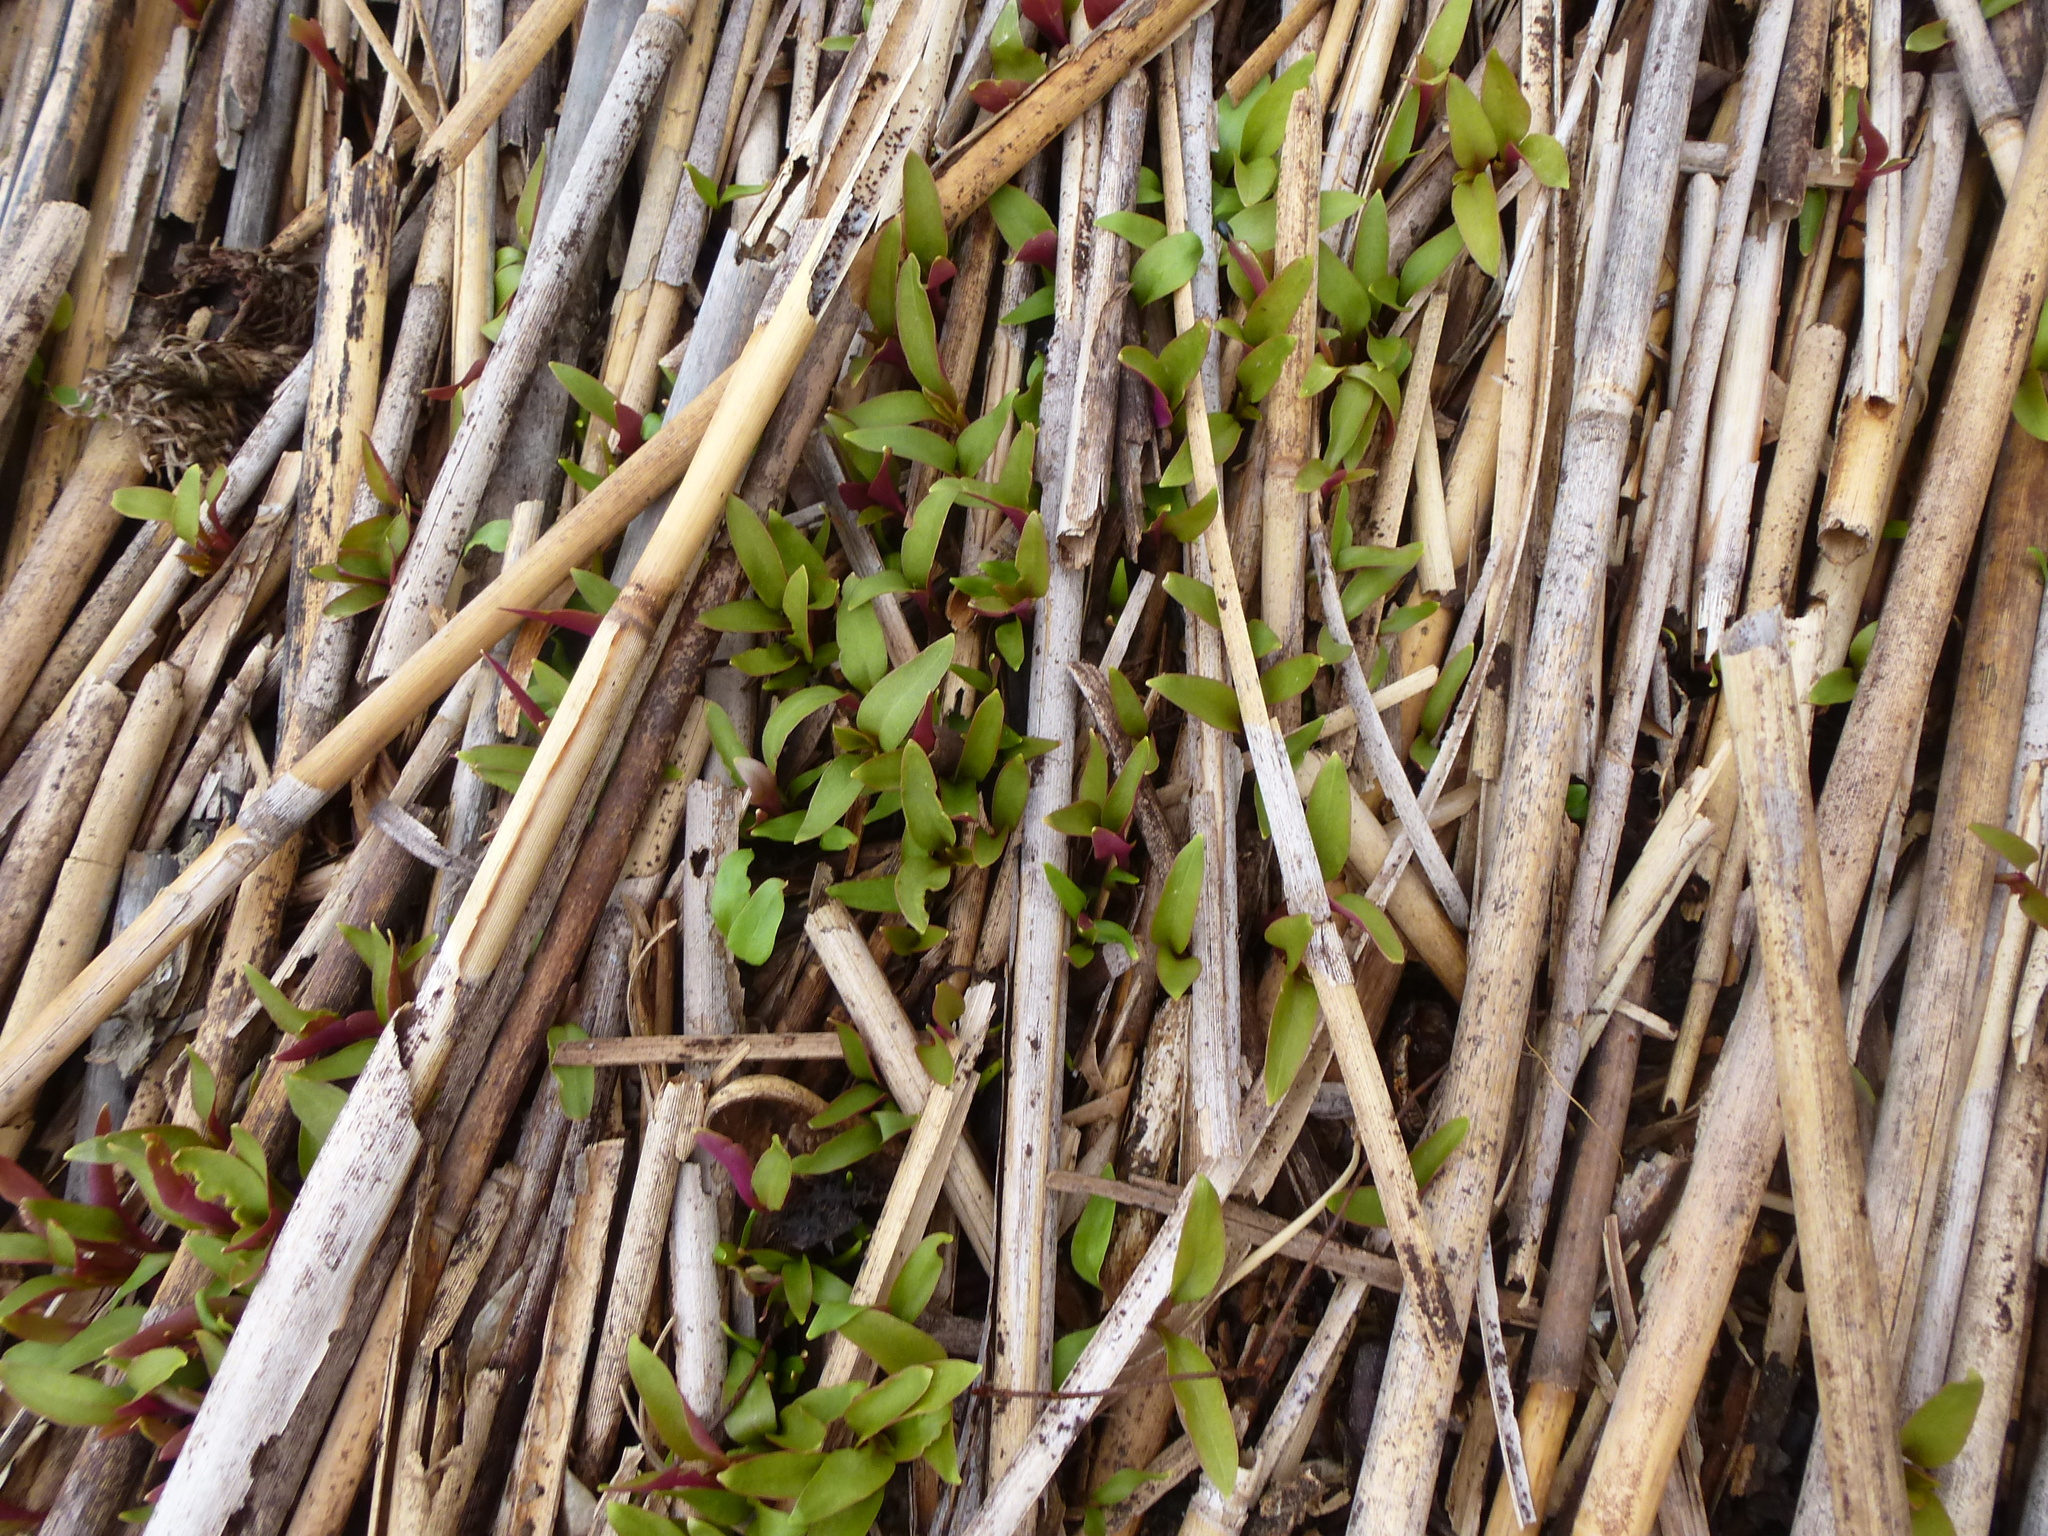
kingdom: Plantae
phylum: Tracheophyta
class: Magnoliopsida
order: Caryophyllales
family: Phytolaccaceae
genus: Phytolacca
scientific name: Phytolacca americana
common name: American pokeweed
